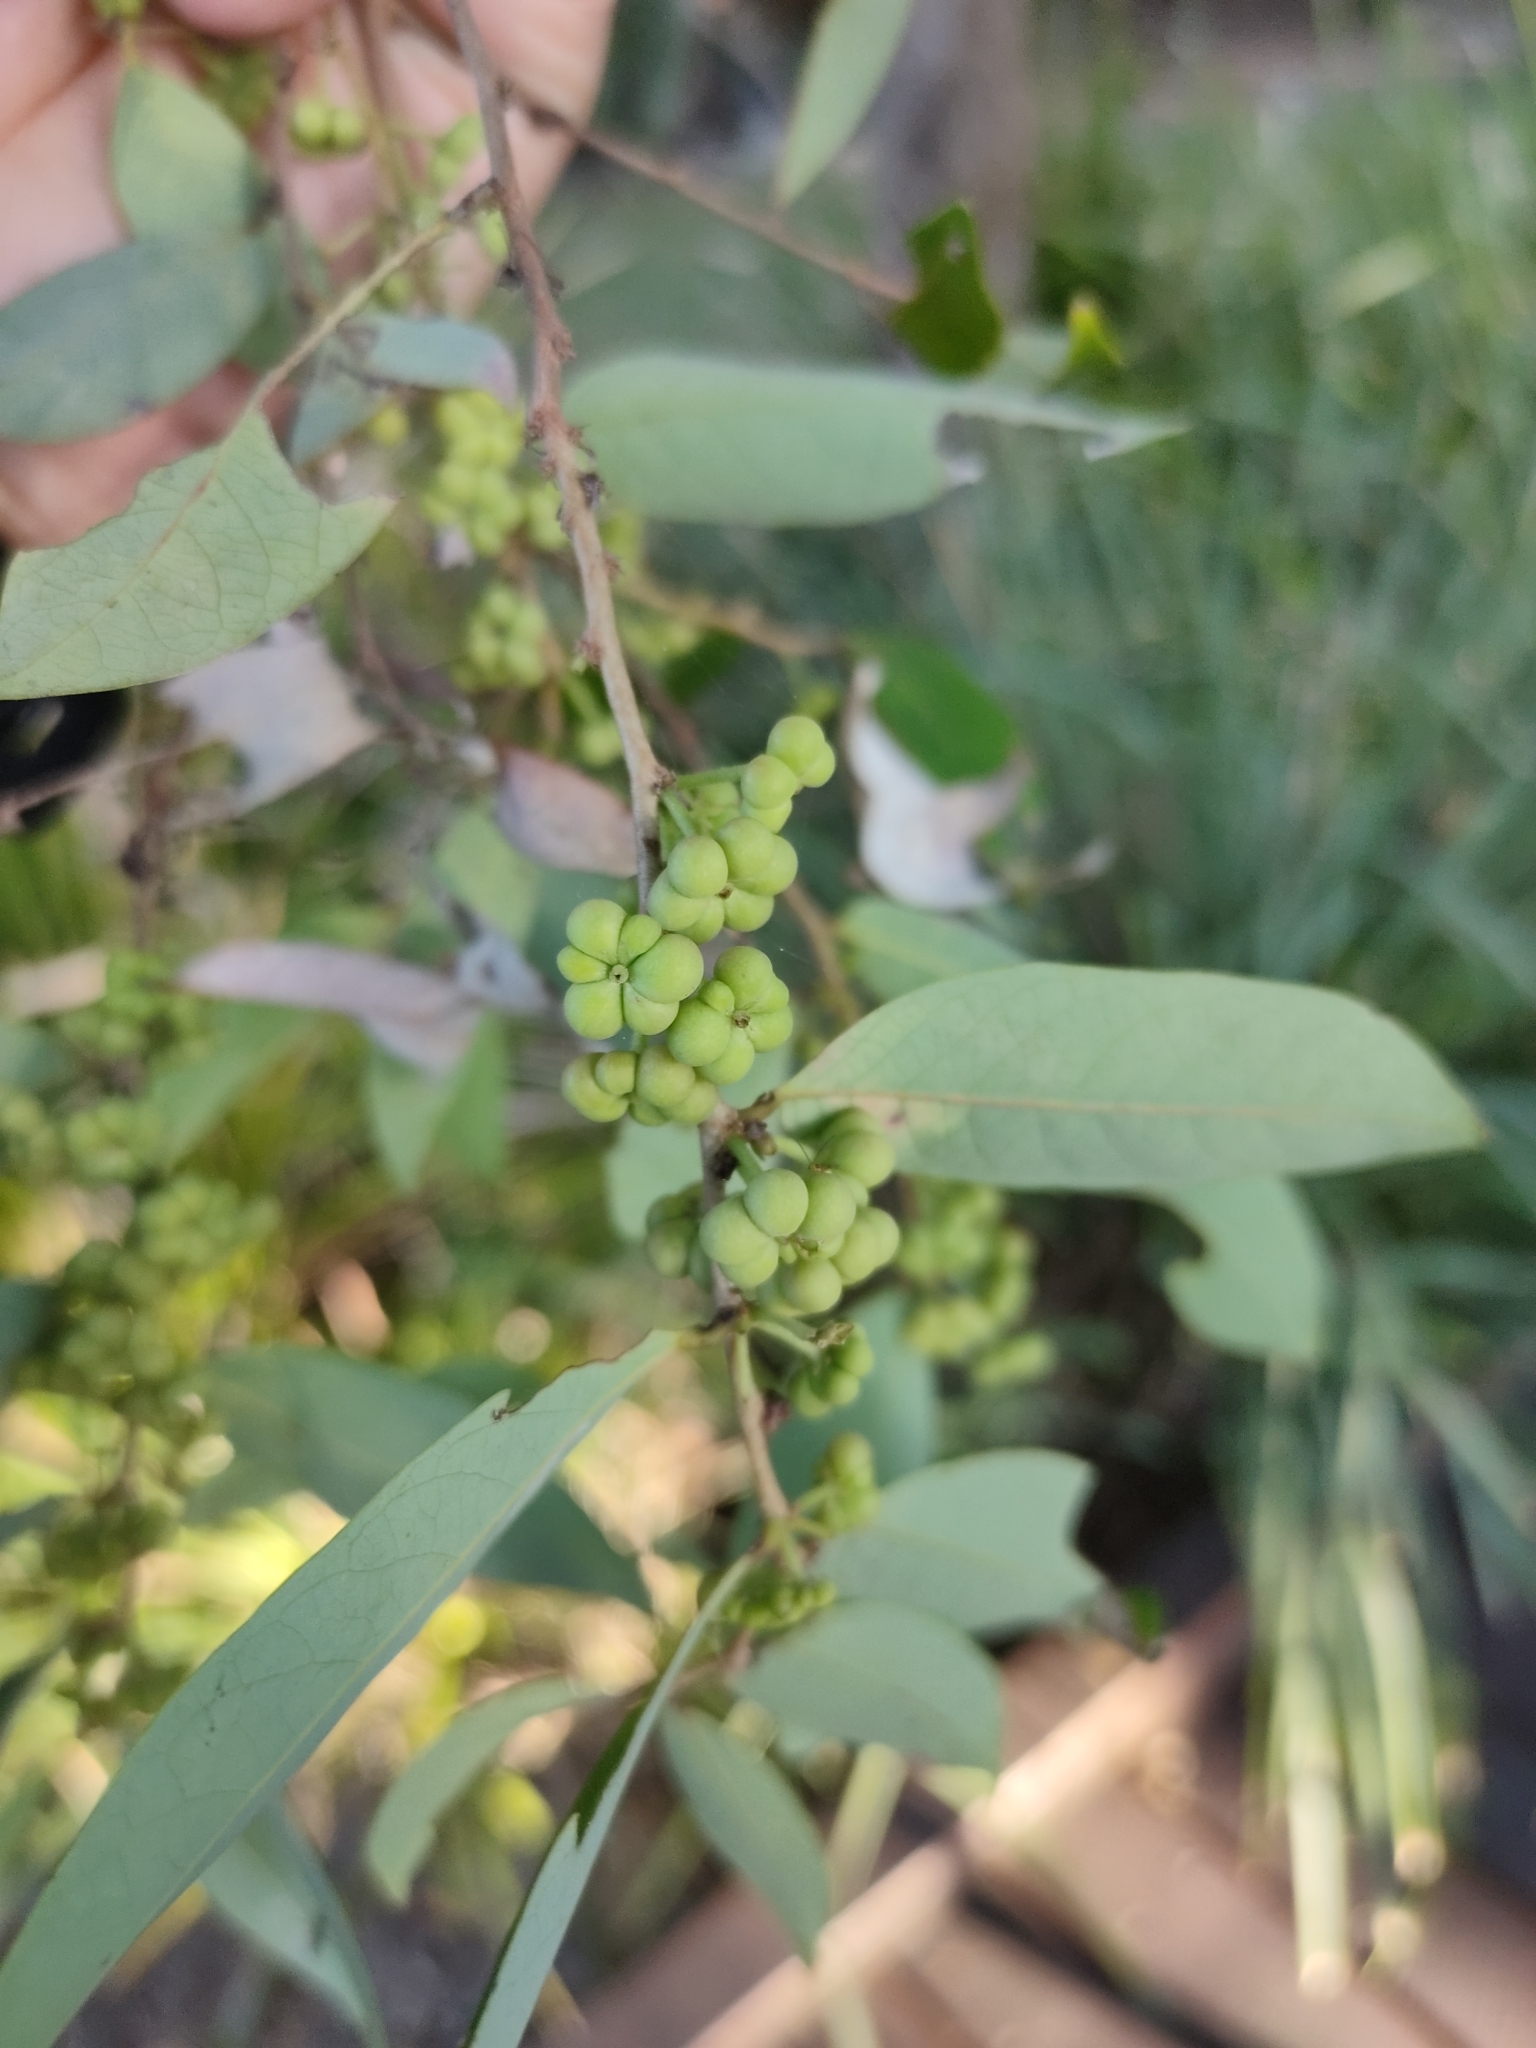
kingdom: Plantae
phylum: Tracheophyta
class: Magnoliopsida
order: Malpighiales
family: Phyllanthaceae
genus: Glochidion
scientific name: Glochidion lobocarpum
